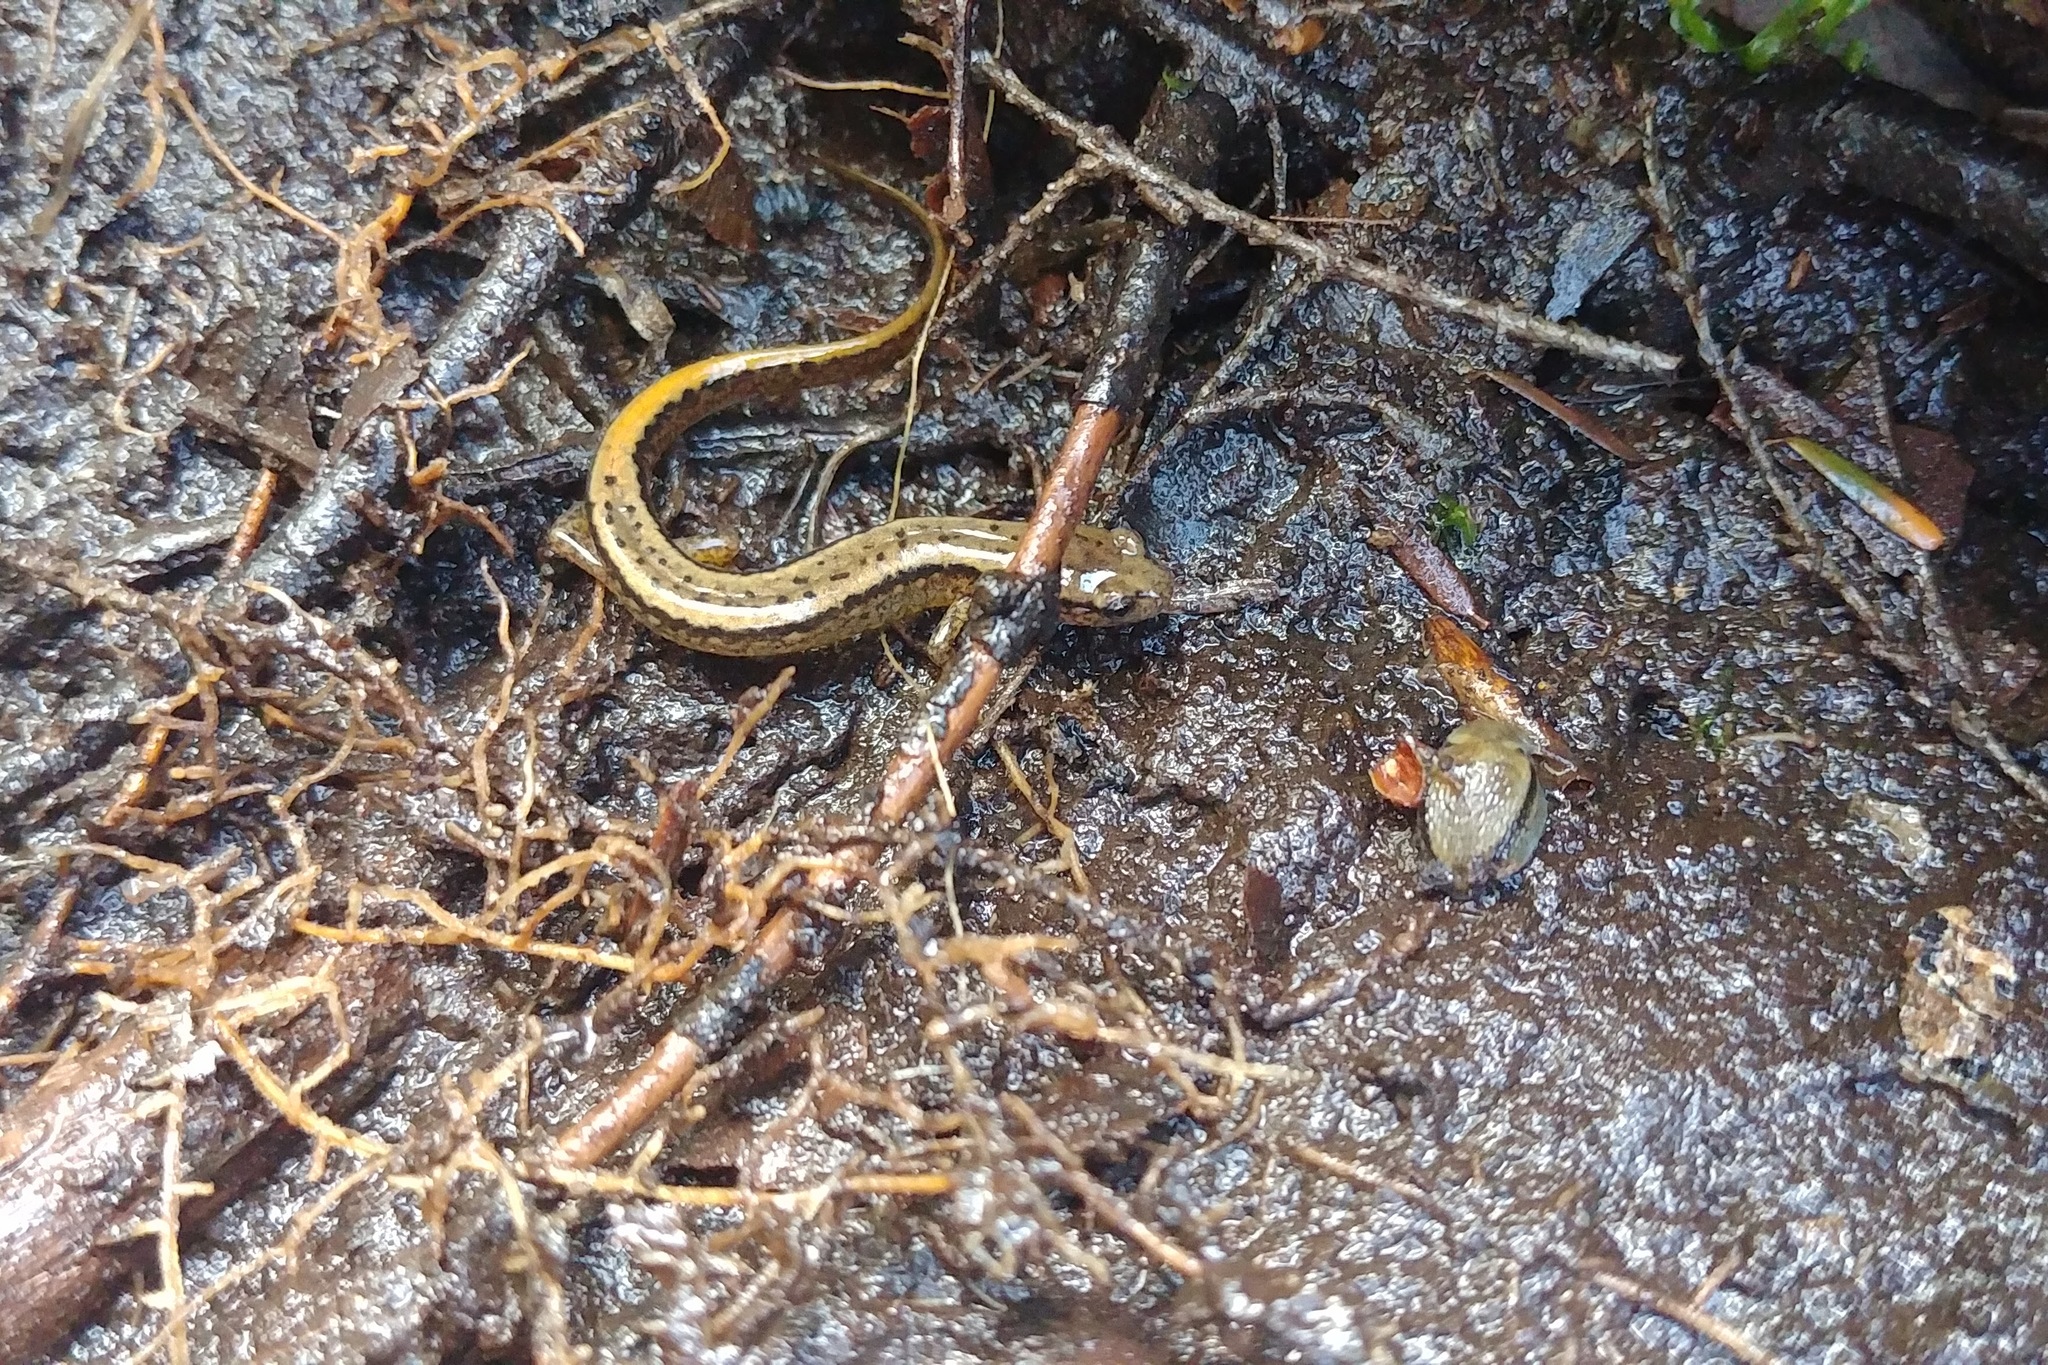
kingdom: Animalia
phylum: Chordata
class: Amphibia
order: Caudata
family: Plethodontidae
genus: Eurycea
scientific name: Eurycea bislineata
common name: Northern two-lined salamander
